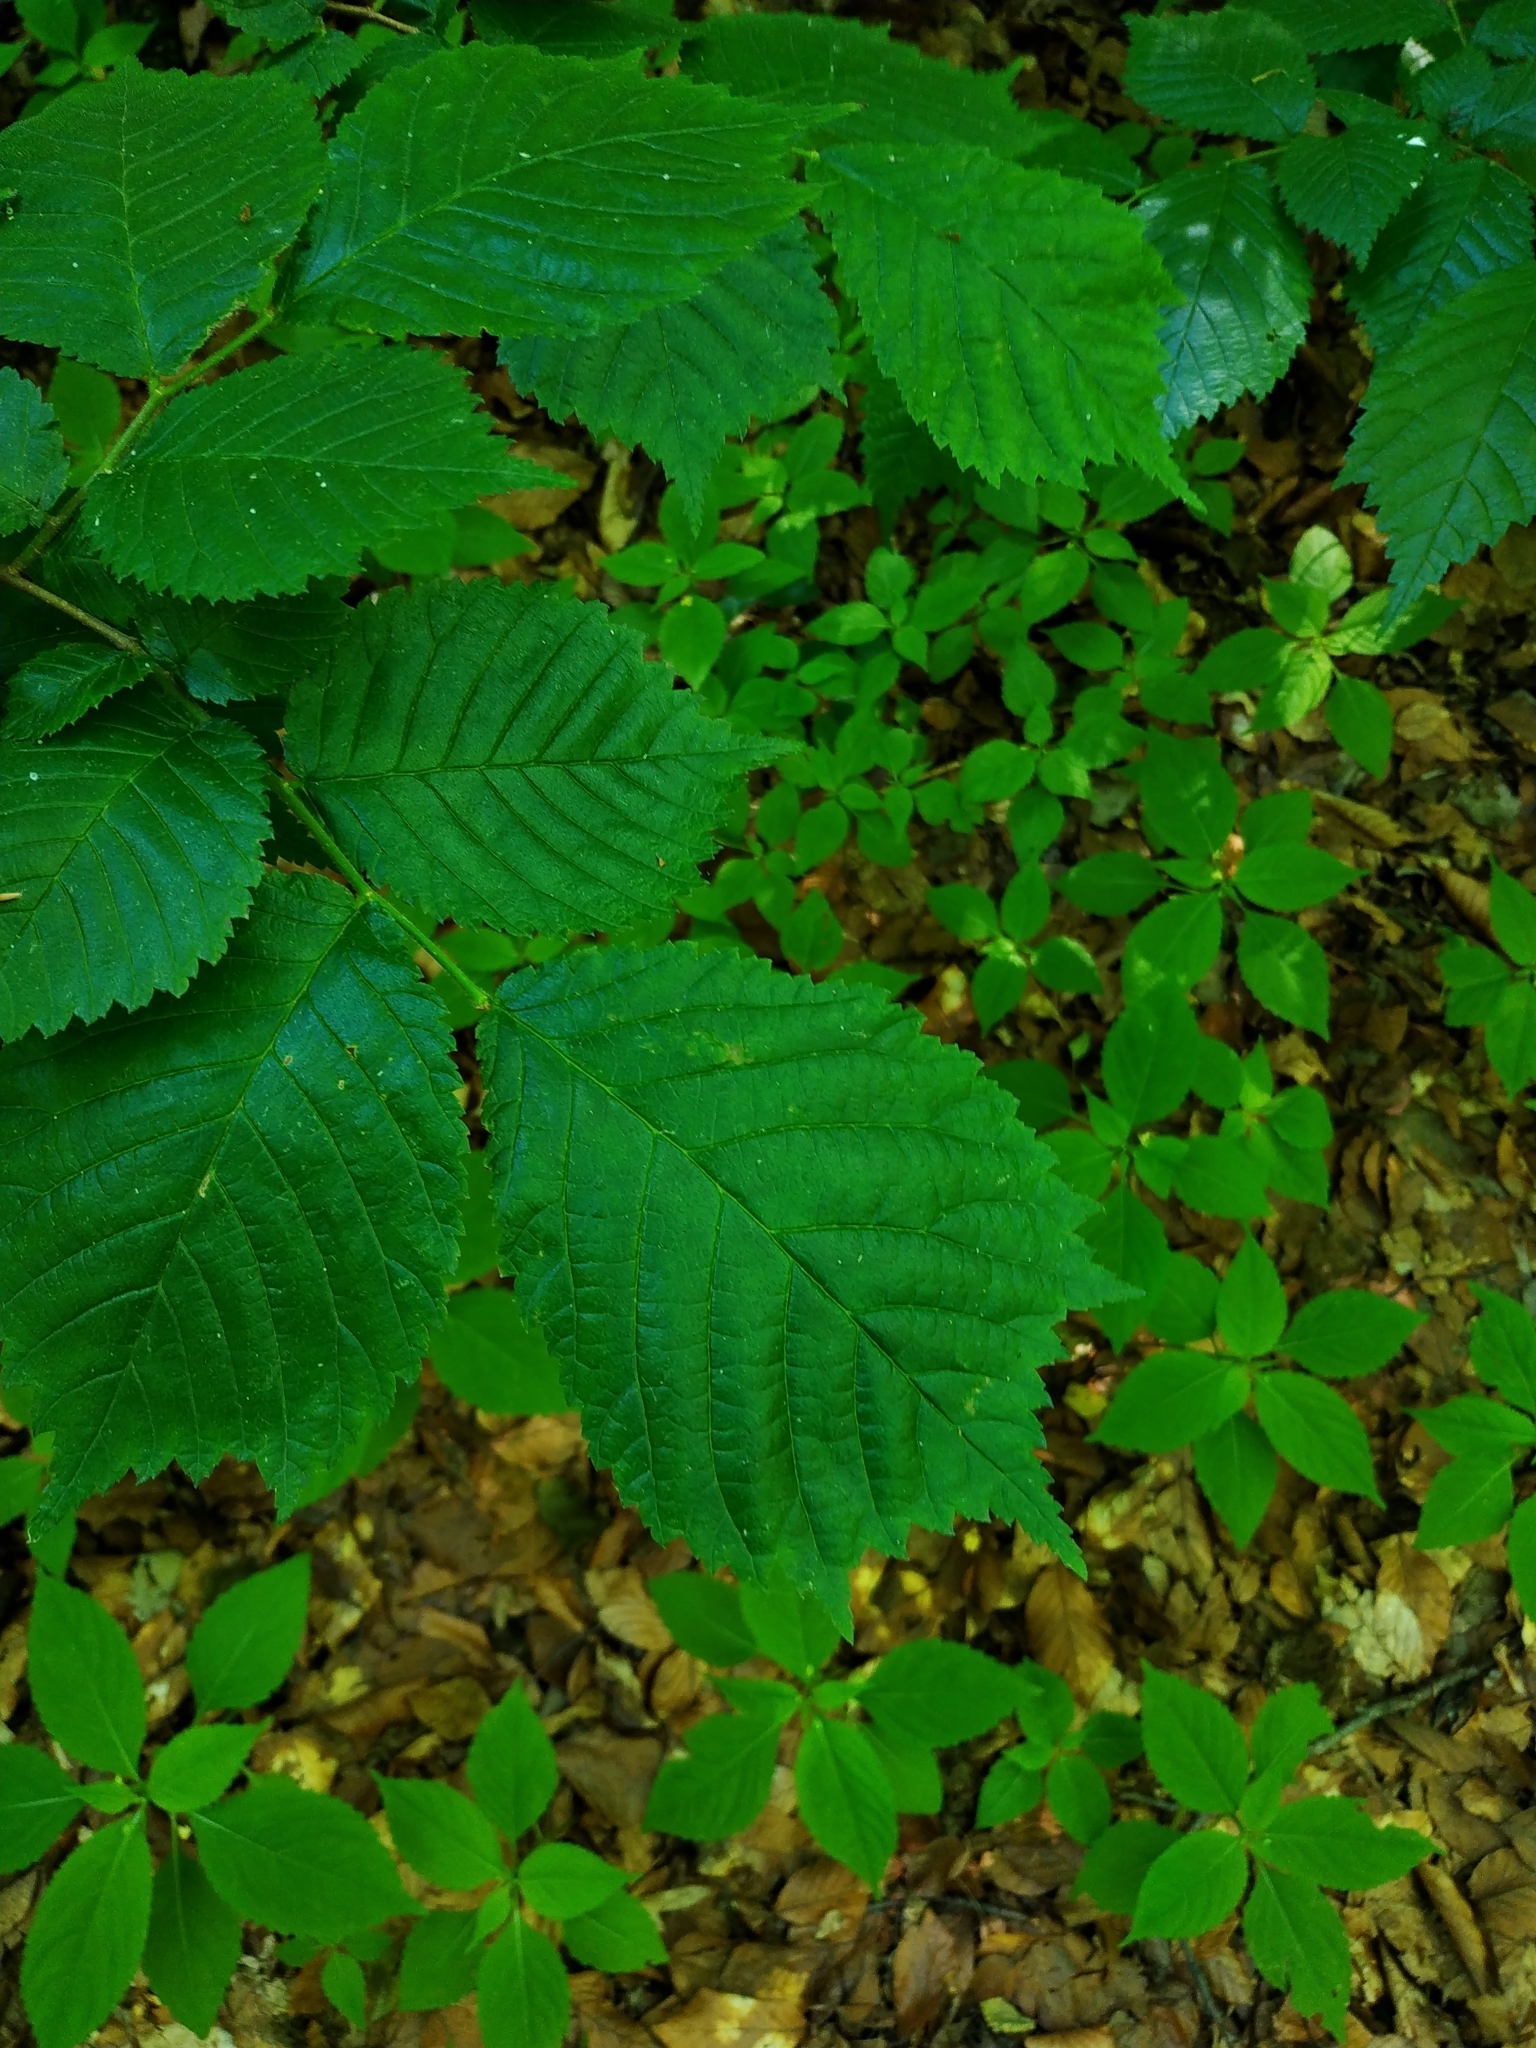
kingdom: Plantae
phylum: Tracheophyta
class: Magnoliopsida
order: Rosales
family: Ulmaceae
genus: Ulmus
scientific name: Ulmus glabra
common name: Wych elm
